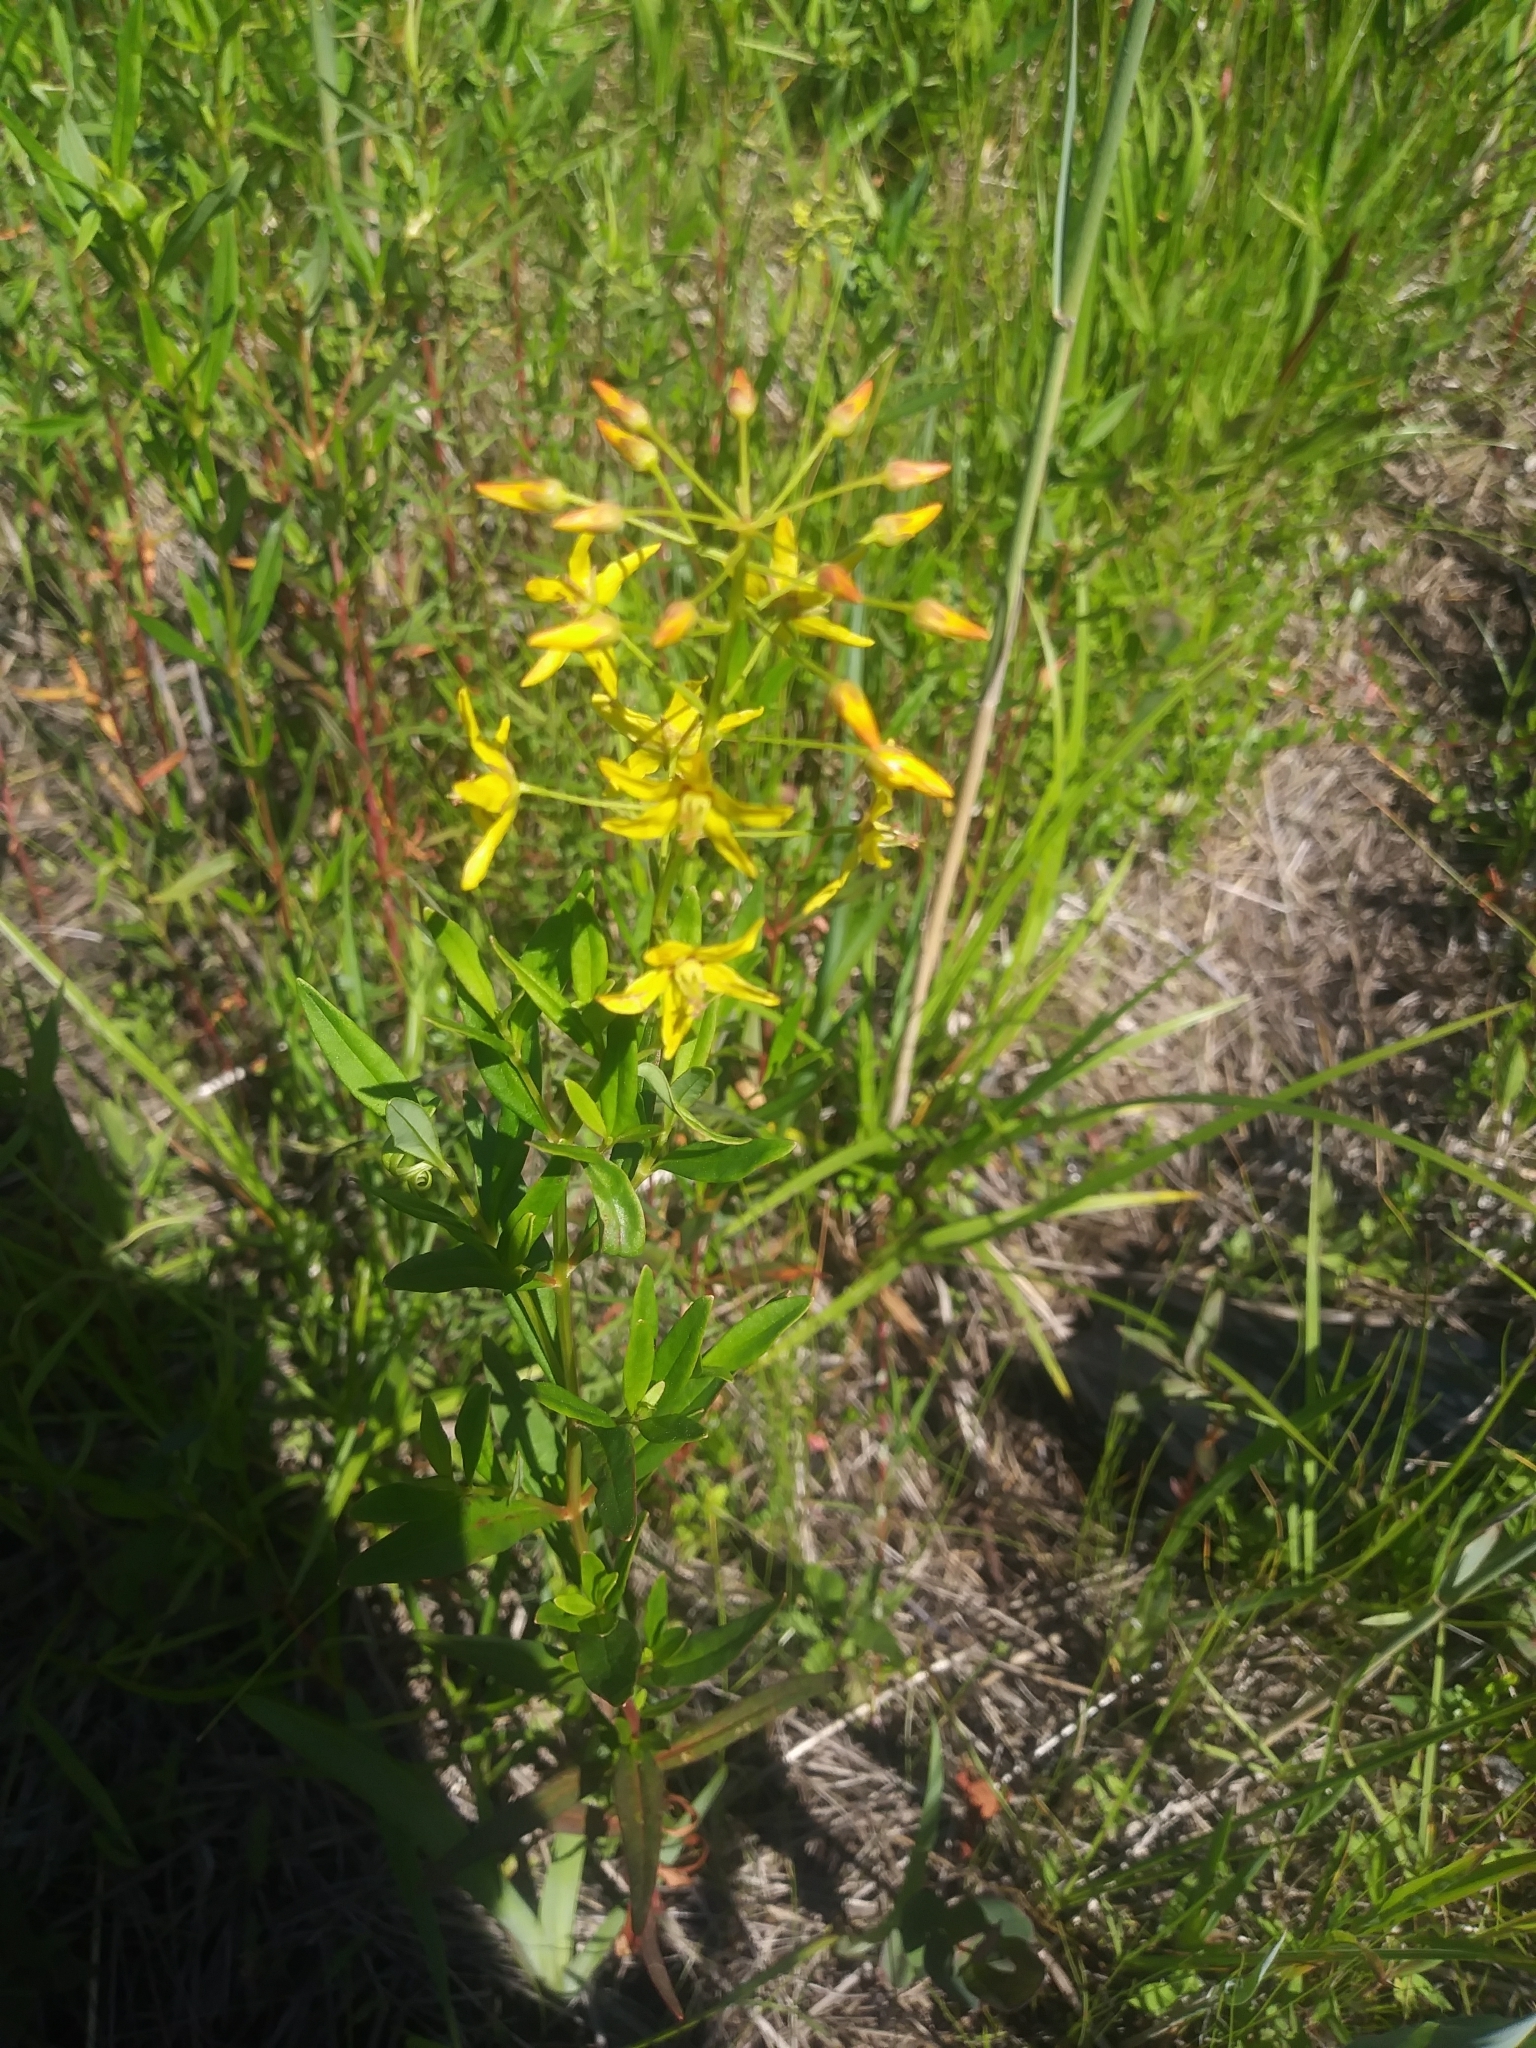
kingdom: Plantae
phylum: Tracheophyta
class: Magnoliopsida
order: Ericales
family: Primulaceae
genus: Lysimachia
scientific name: Lysimachia terrestris
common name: Lake loosestrife
